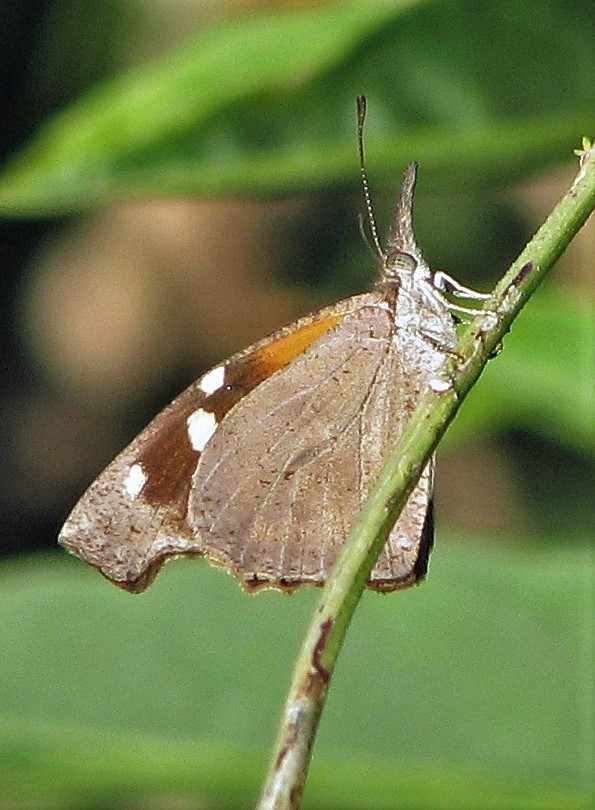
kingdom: Animalia
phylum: Arthropoda
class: Insecta
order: Lepidoptera
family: Nymphalidae
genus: Libytheana
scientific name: Libytheana carinenta
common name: American snout
